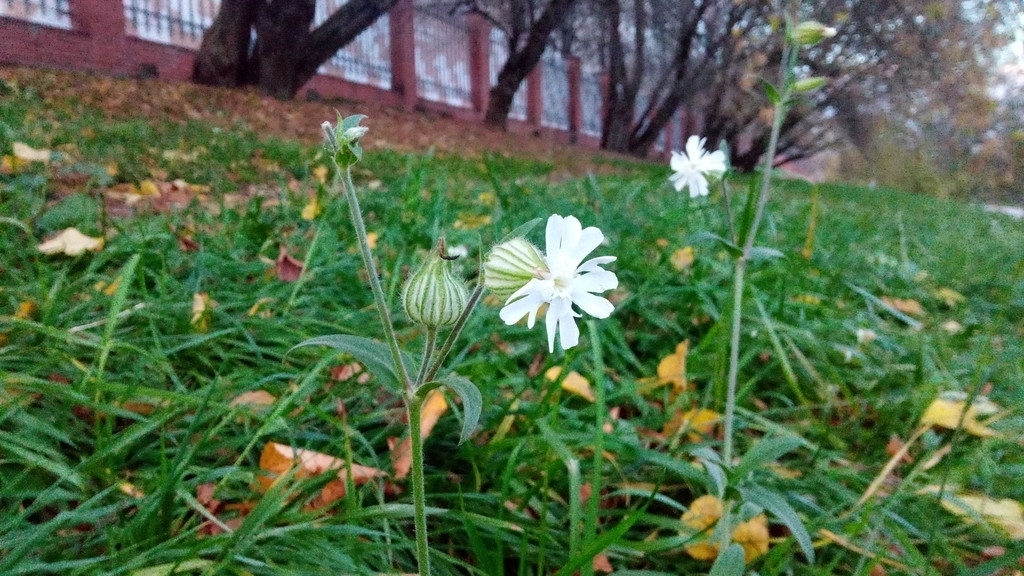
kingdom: Plantae
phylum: Tracheophyta
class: Magnoliopsida
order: Caryophyllales
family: Caryophyllaceae
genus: Silene
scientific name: Silene latifolia
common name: White campion
